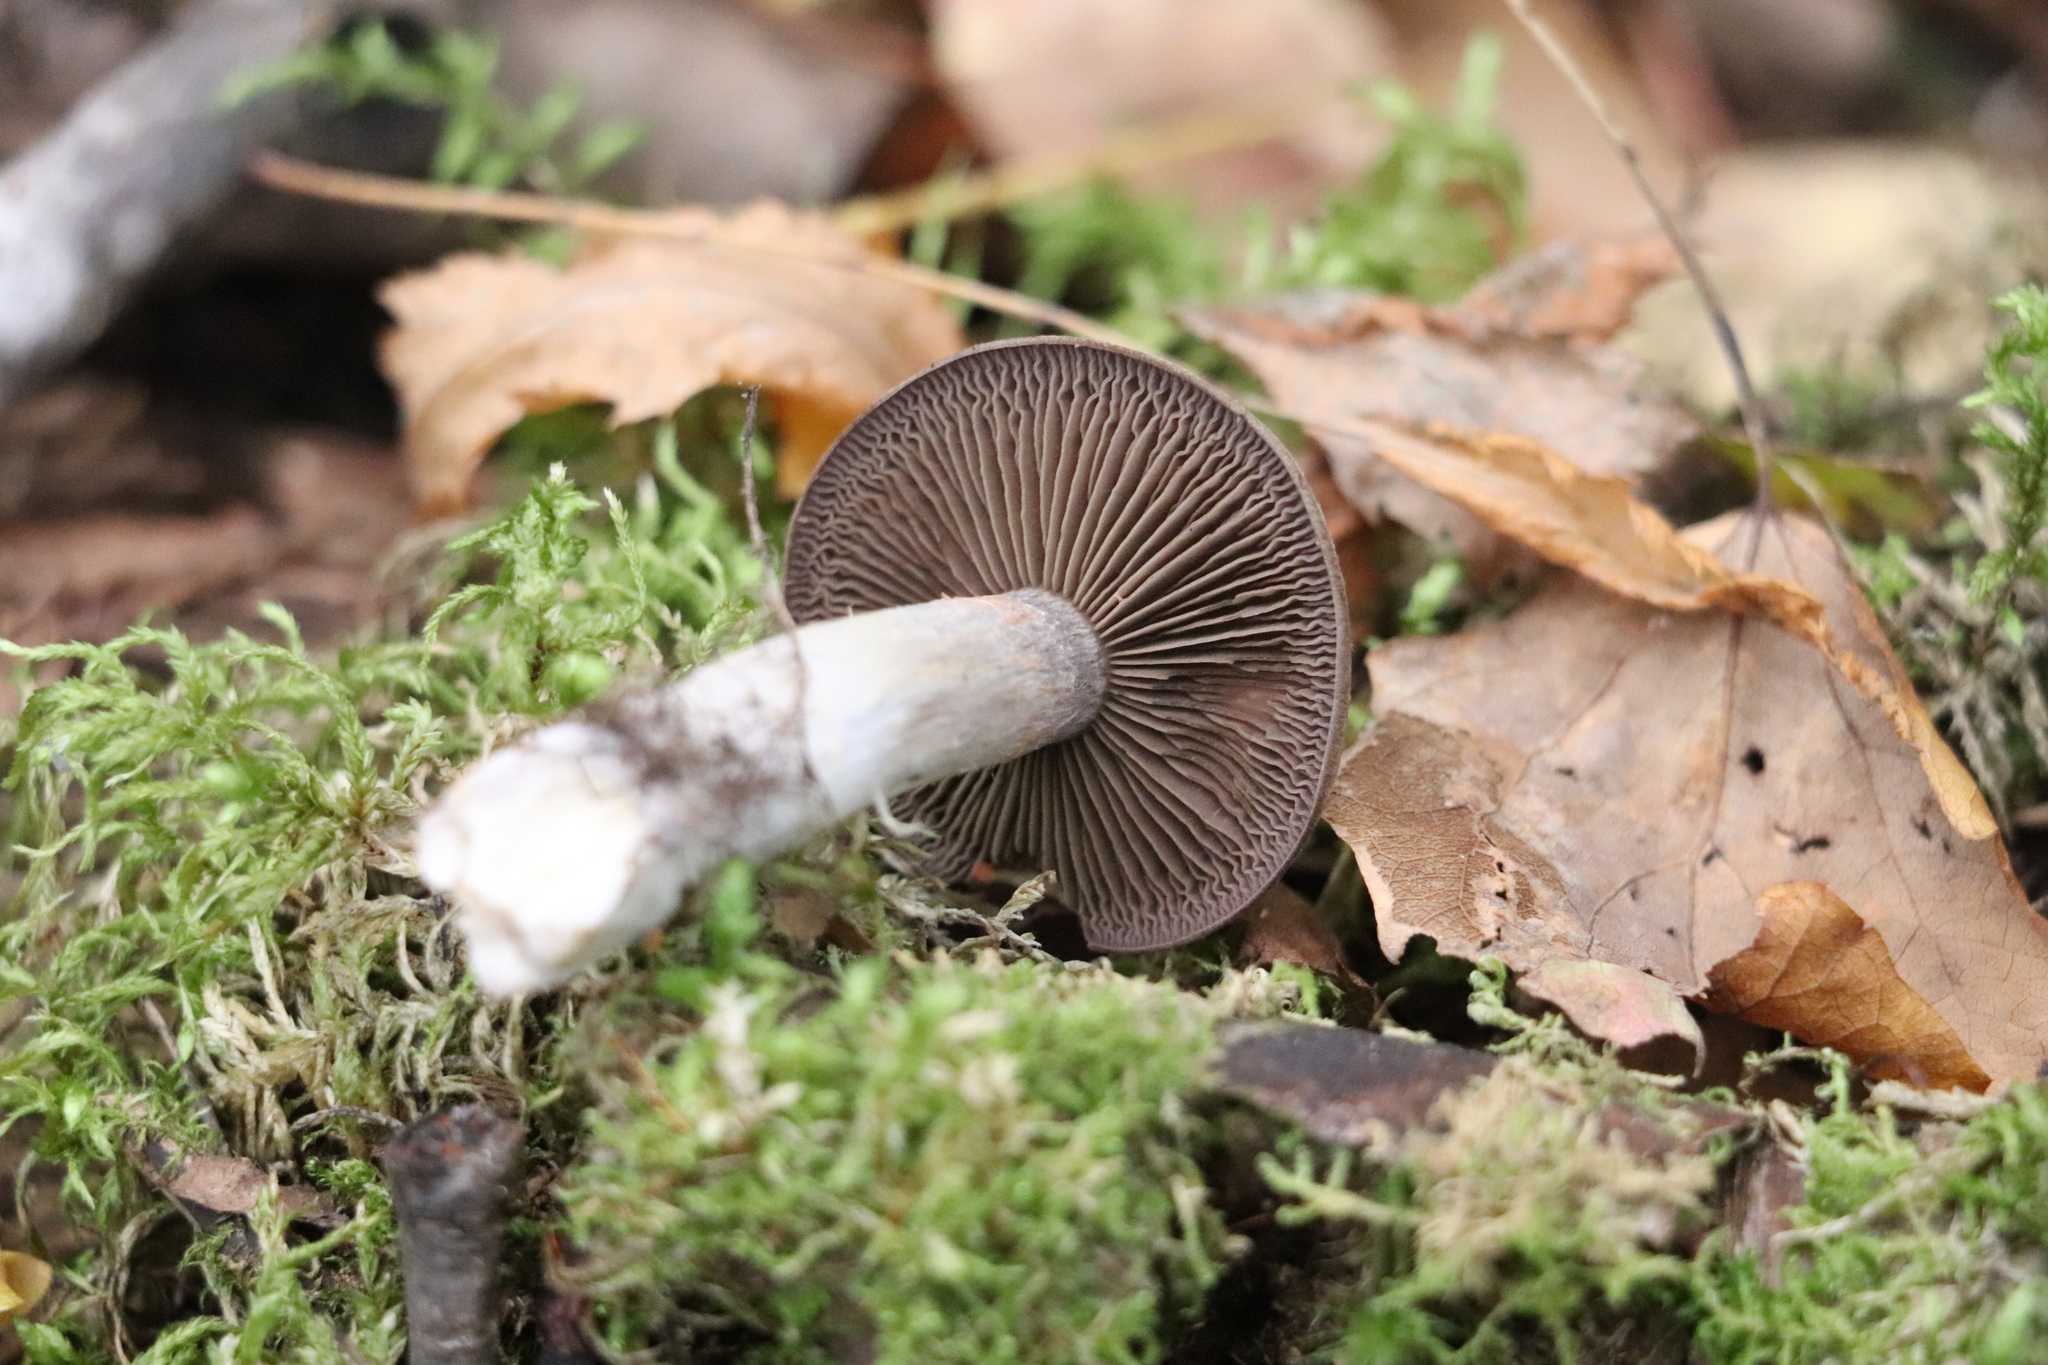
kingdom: Fungi
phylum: Basidiomycota
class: Agaricomycetes
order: Agaricales
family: Cortinariaceae
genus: Thaxterogaster
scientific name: Thaxterogaster porphyropus
